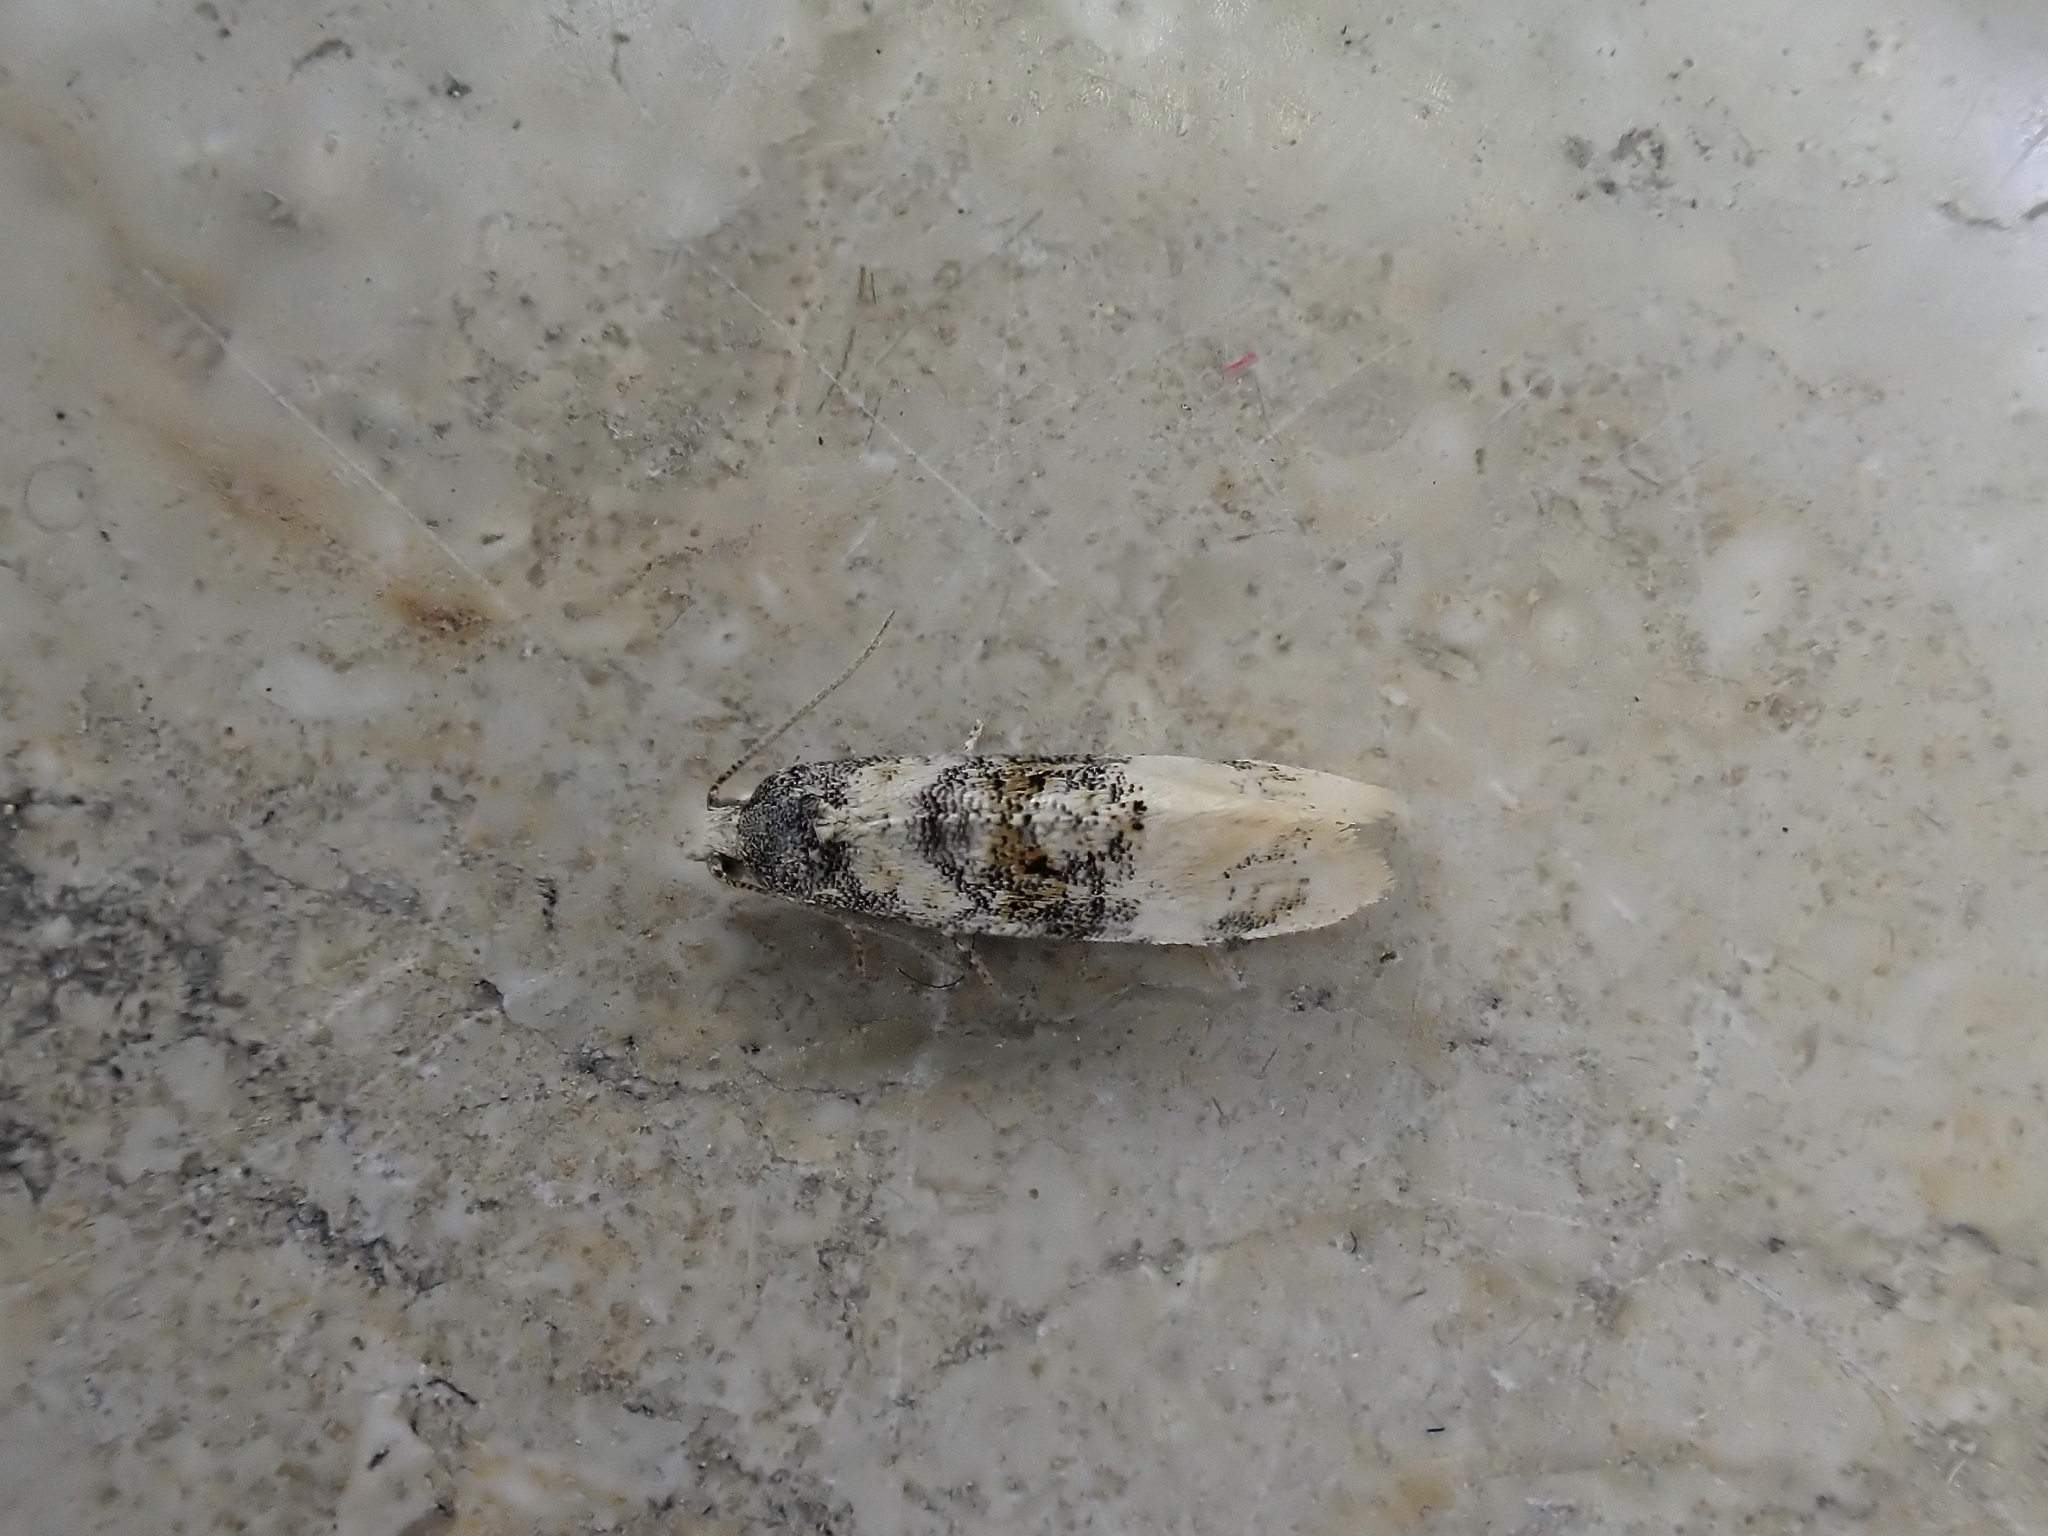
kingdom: Animalia
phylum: Arthropoda
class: Insecta
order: Lepidoptera
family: Tortricidae
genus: Thyraylia
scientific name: Thyraylia nana
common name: Birch conch
